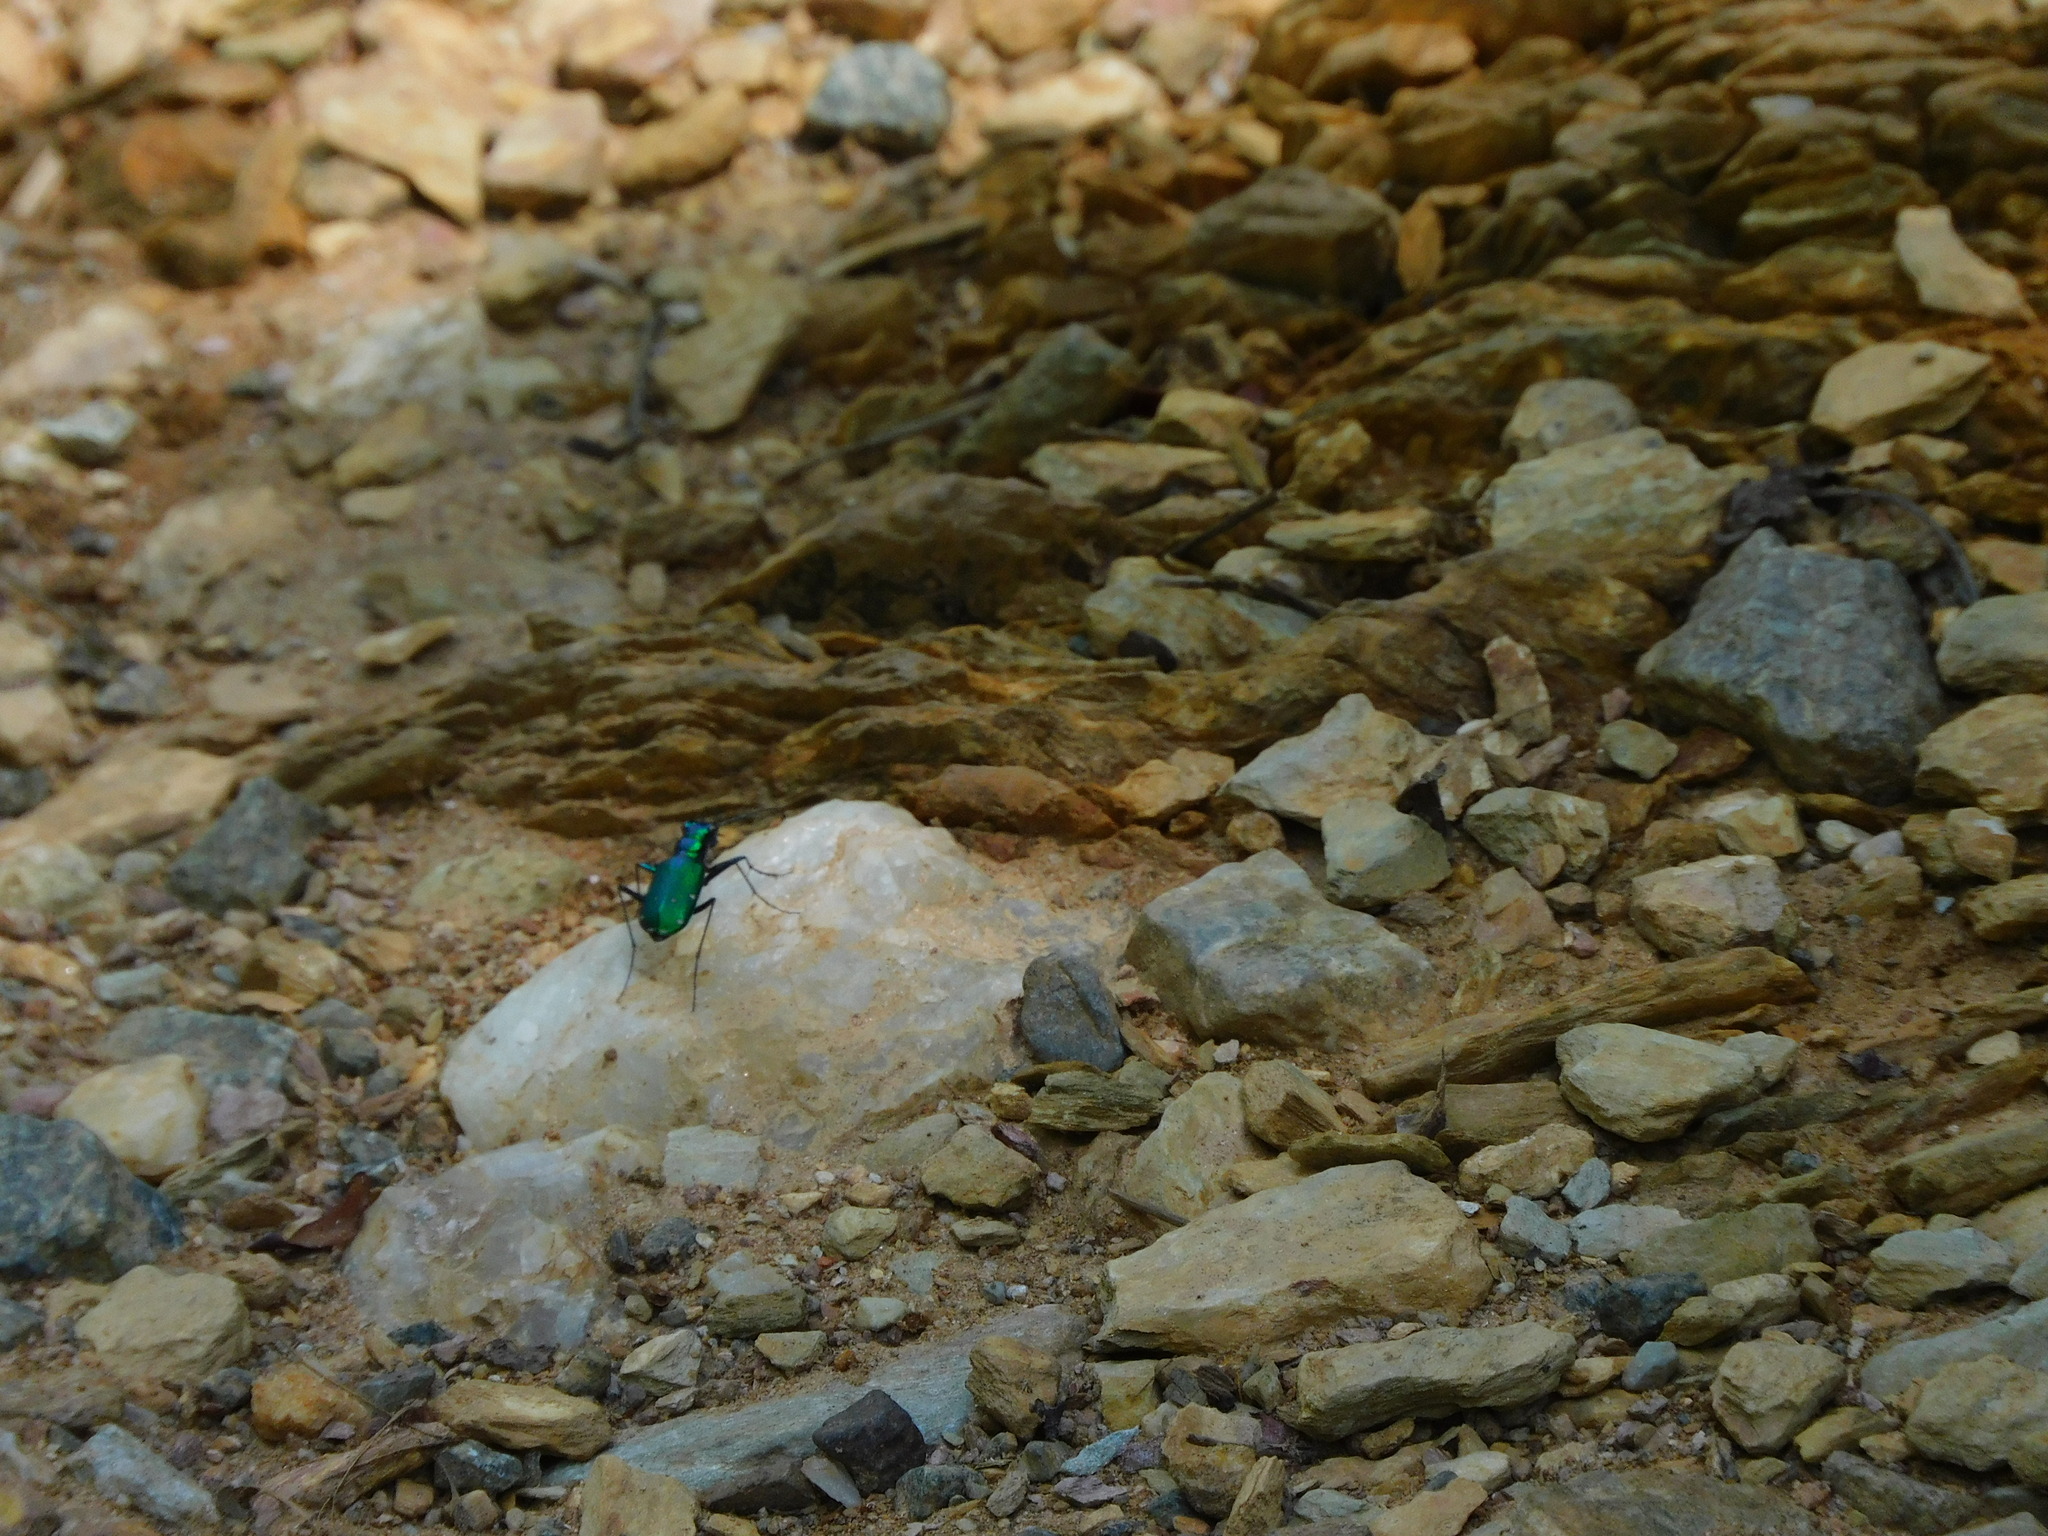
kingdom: Animalia
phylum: Arthropoda
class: Insecta
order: Coleoptera
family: Carabidae
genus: Cicindela
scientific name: Cicindela sexguttata
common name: Six-spotted tiger beetle
